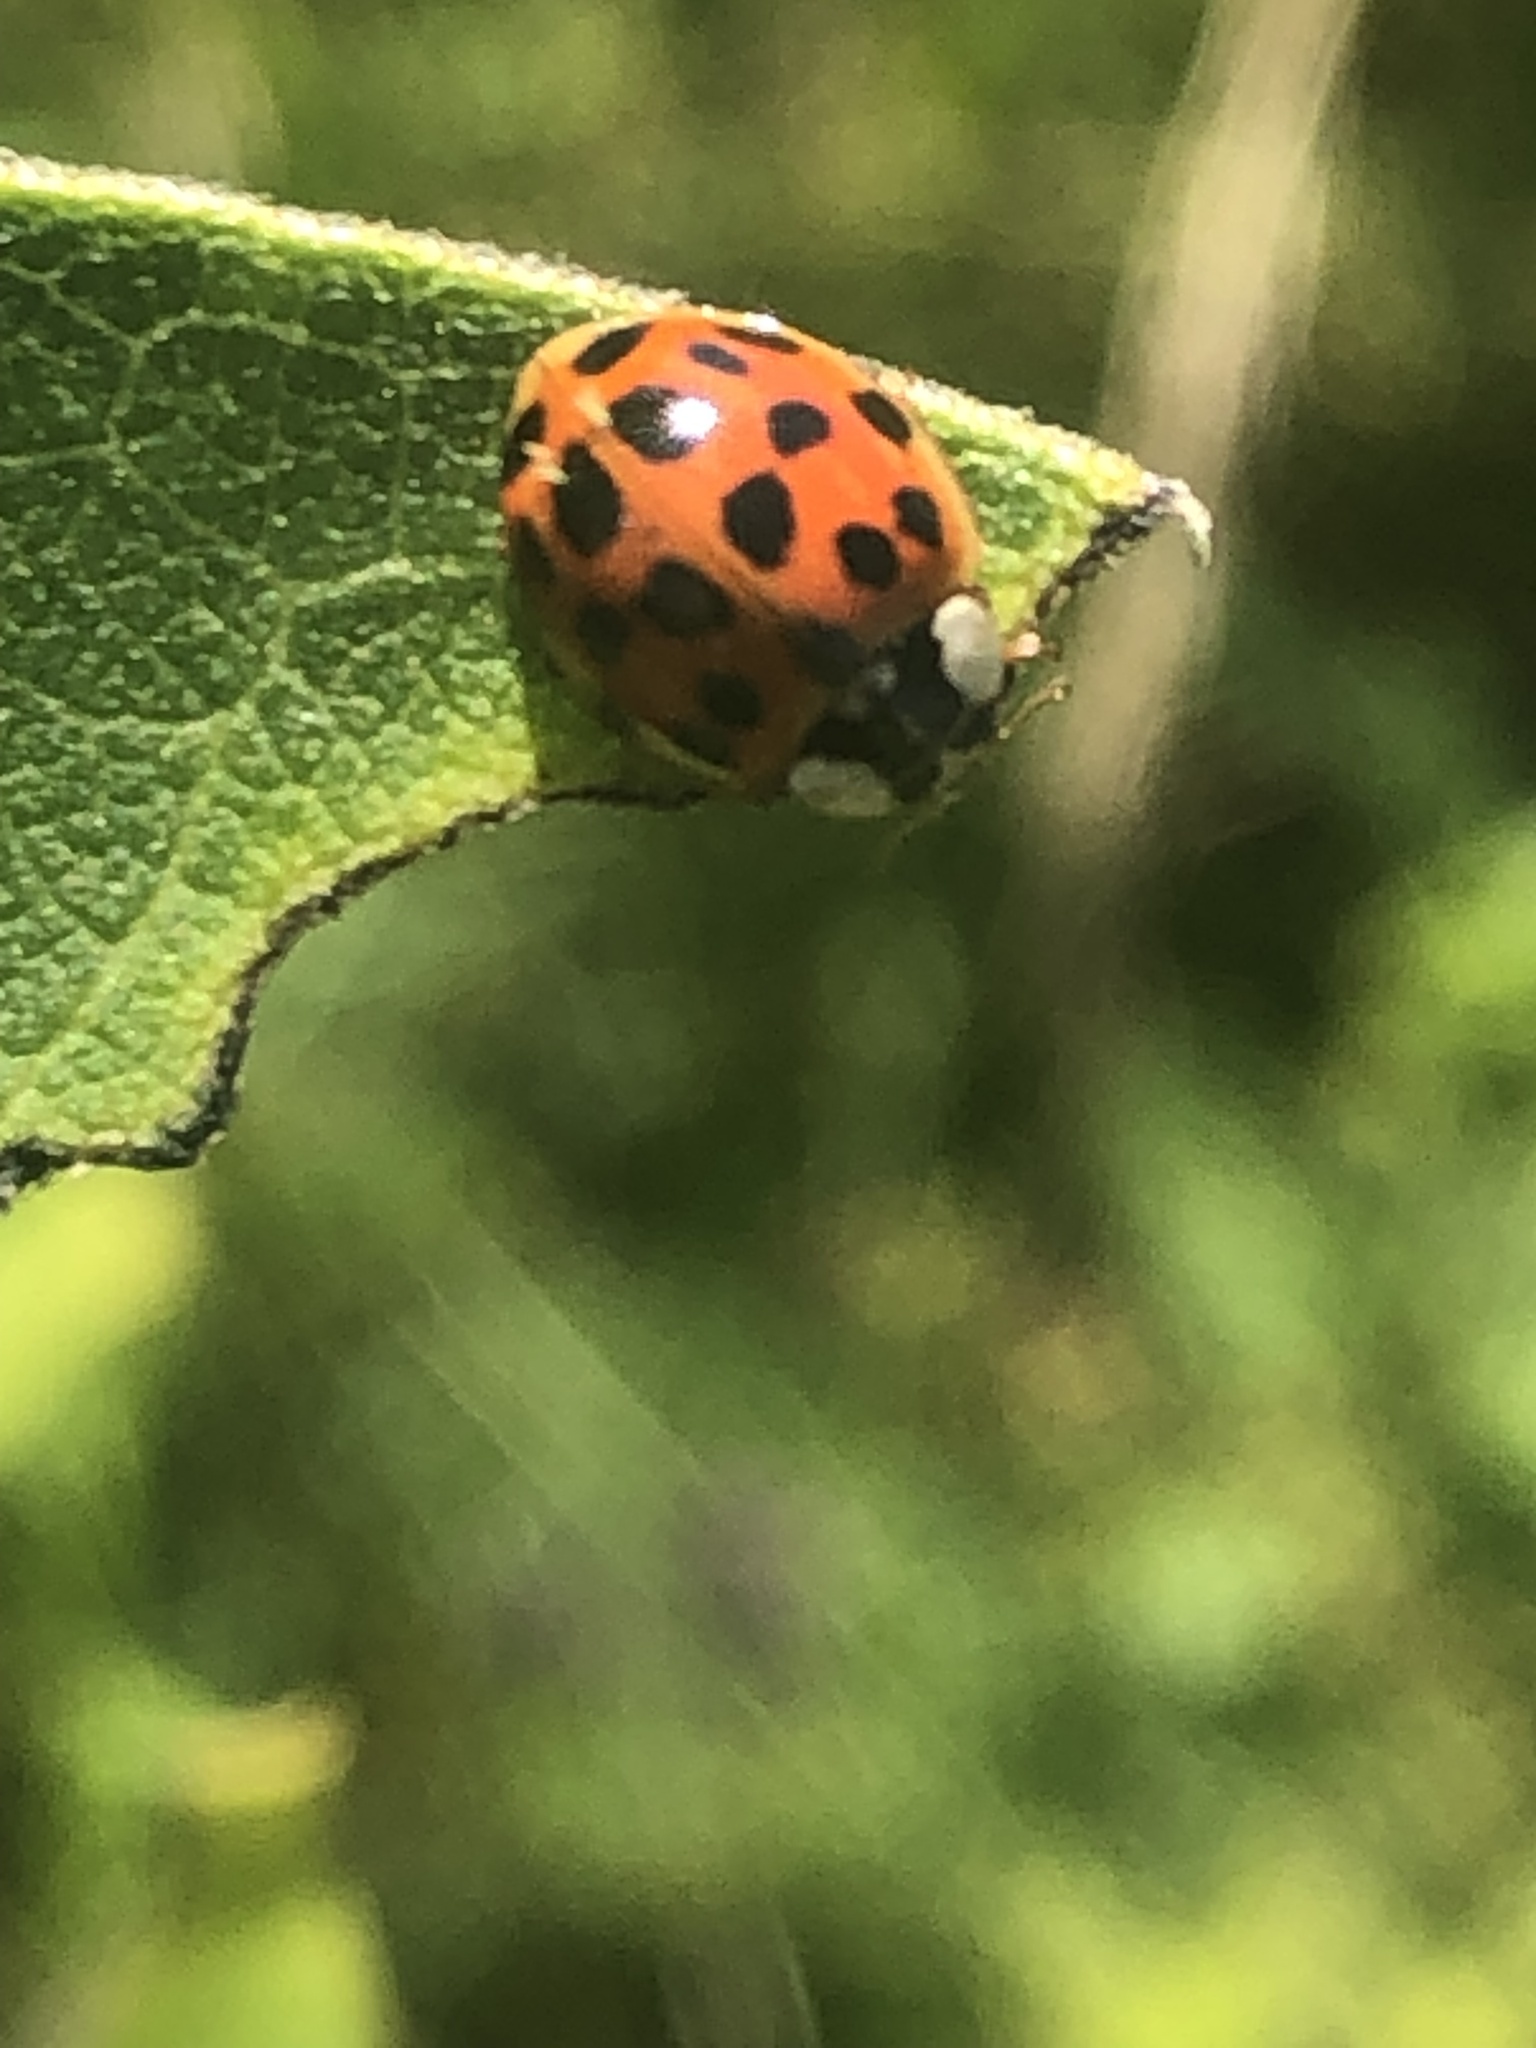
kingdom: Animalia
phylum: Arthropoda
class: Insecta
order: Coleoptera
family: Coccinellidae
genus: Harmonia
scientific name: Harmonia axyridis
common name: Harlequin ladybird
